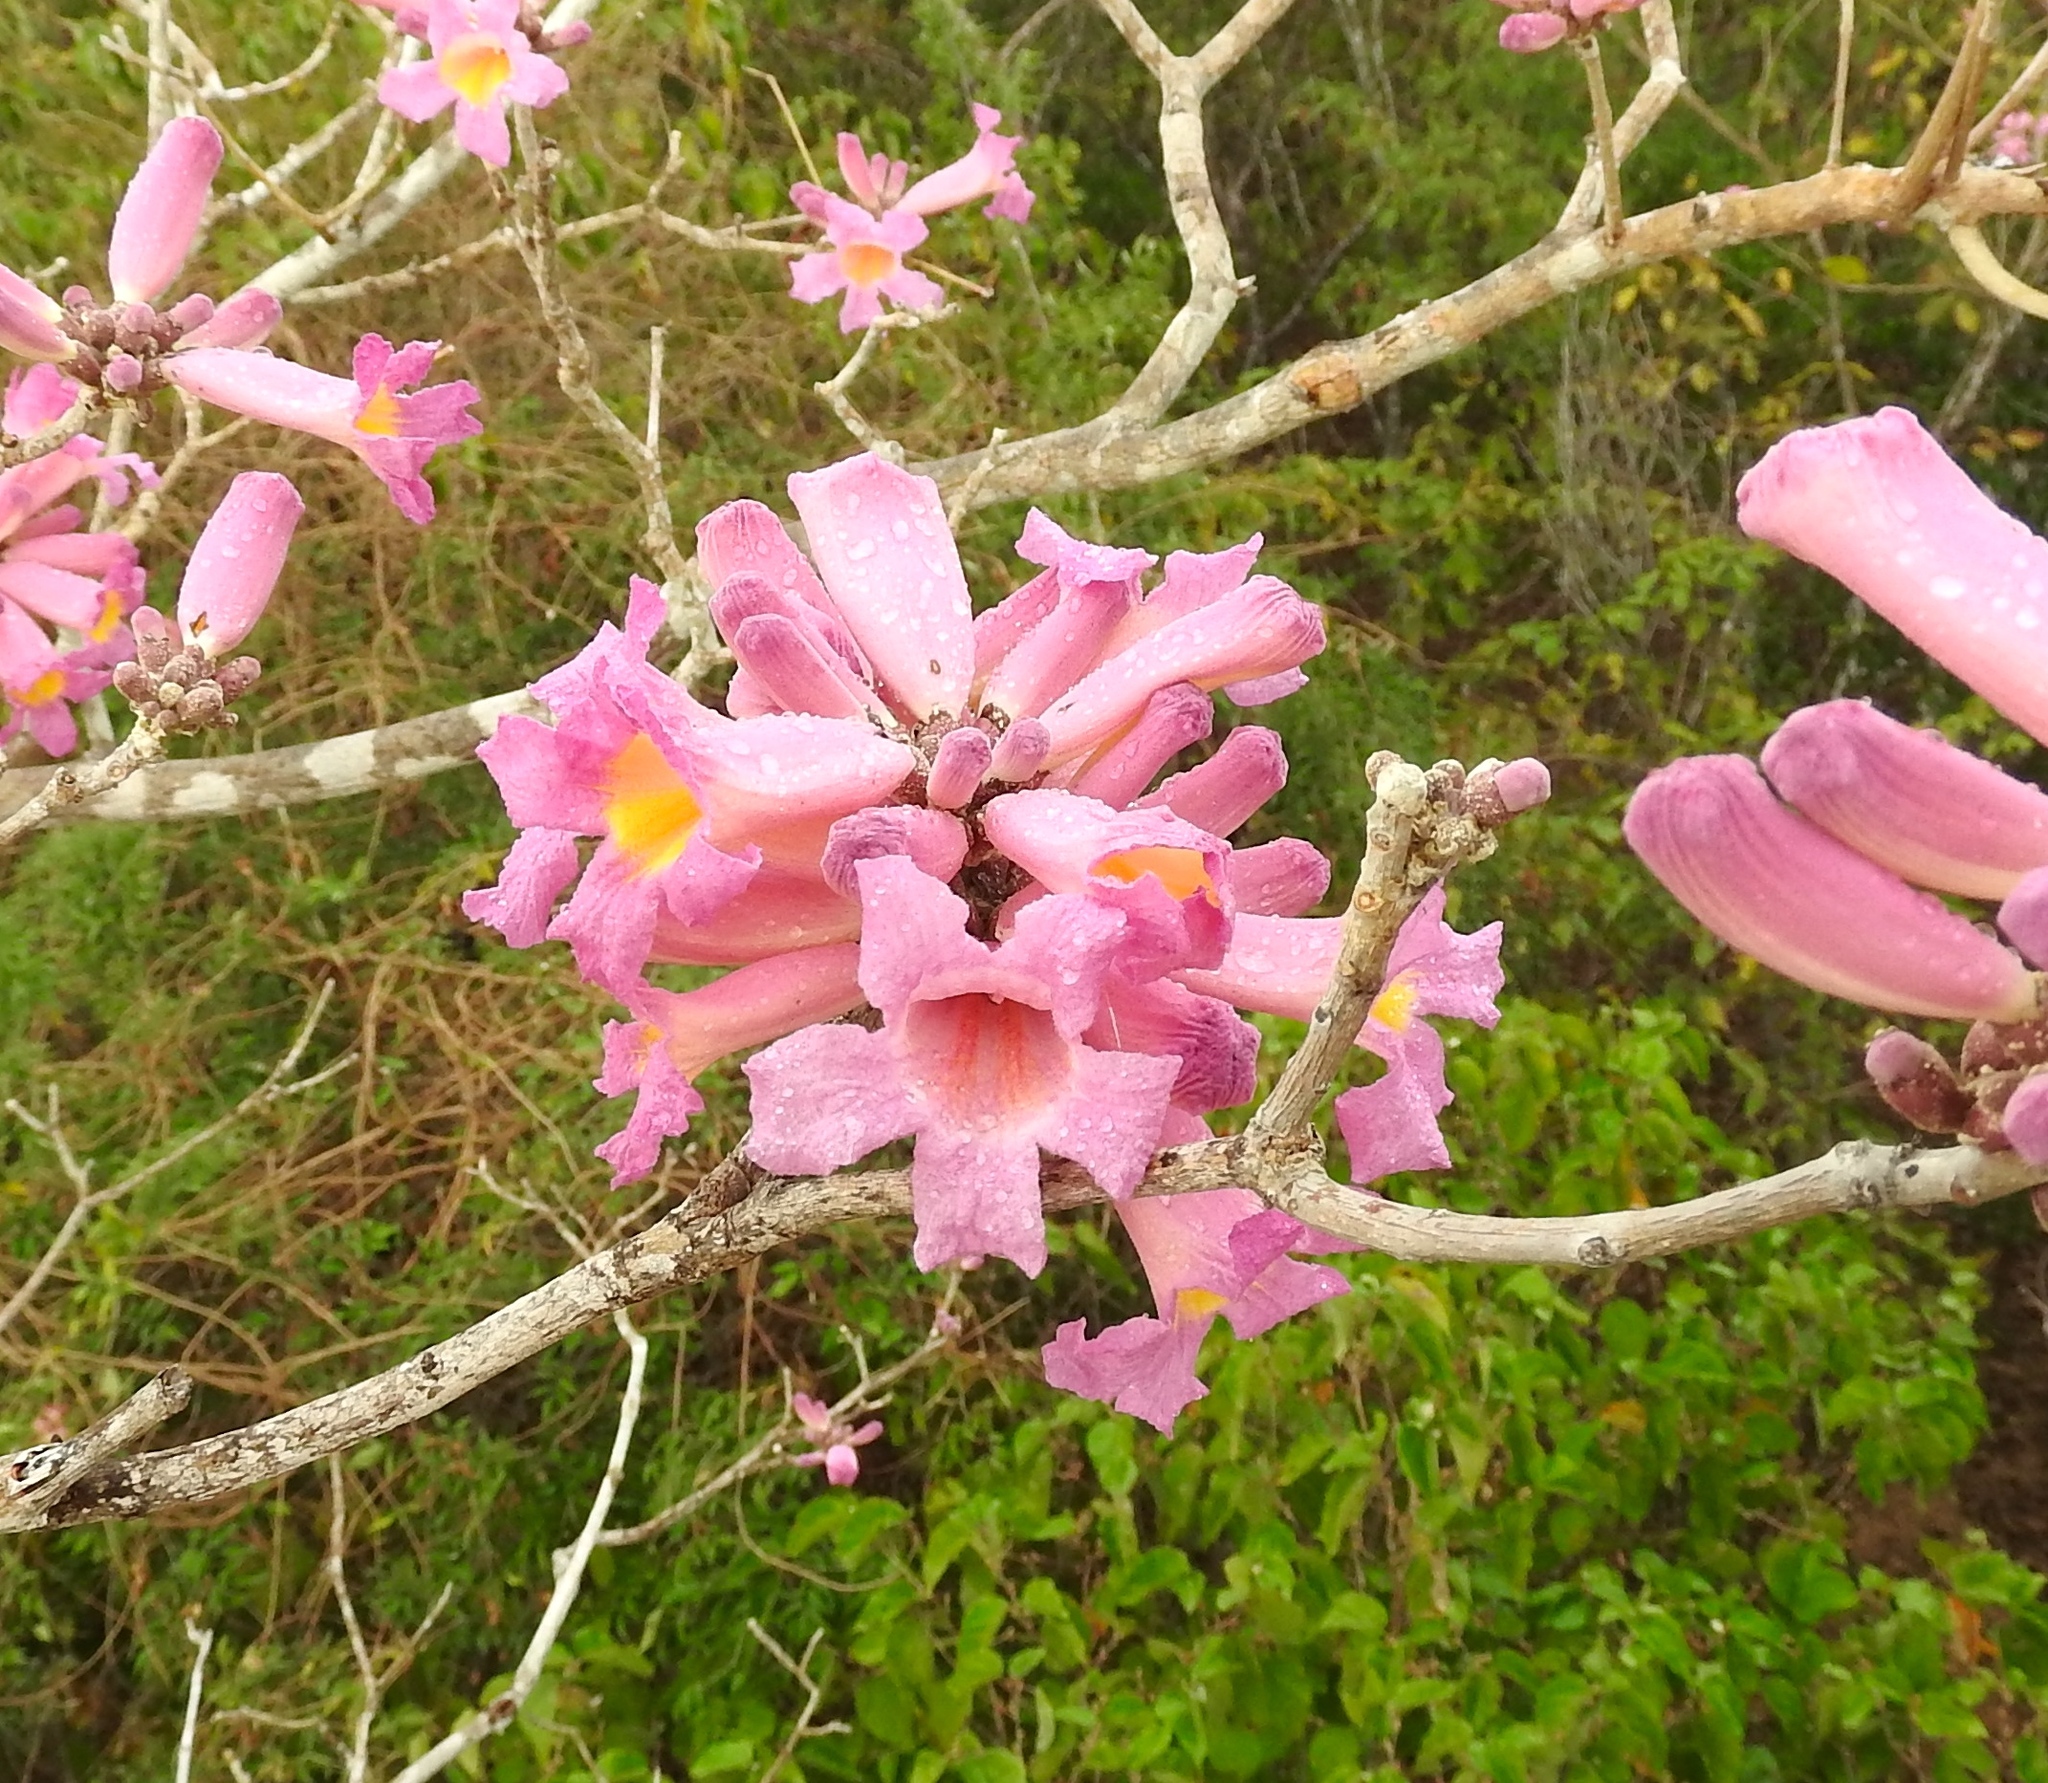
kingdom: Plantae
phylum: Tracheophyta
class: Magnoliopsida
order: Lamiales
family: Bignoniaceae
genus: Handroanthus
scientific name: Handroanthus impetiginosum
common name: Pink trumpet tree
